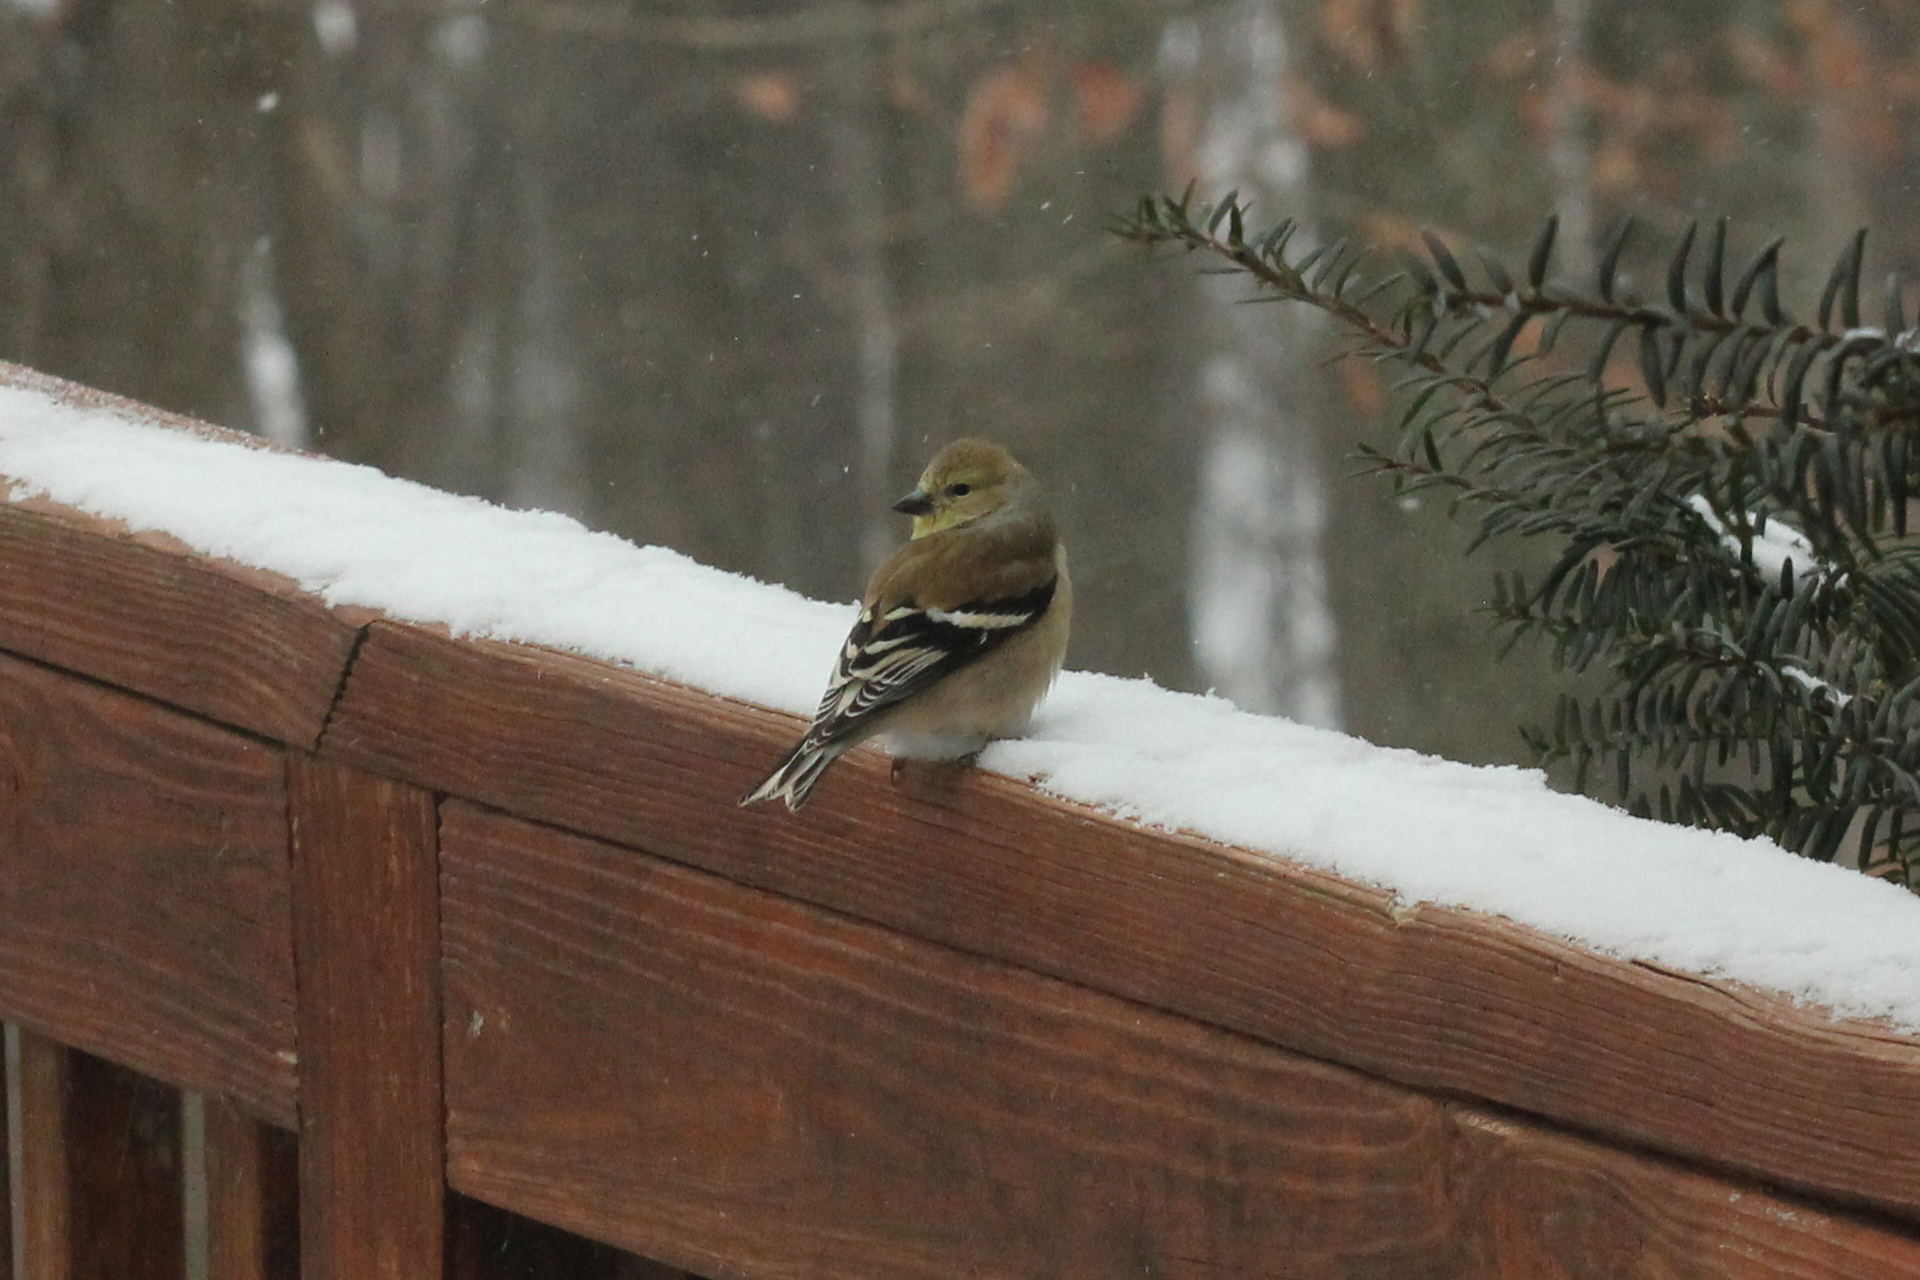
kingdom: Animalia
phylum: Chordata
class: Aves
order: Passeriformes
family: Fringillidae
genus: Spinus
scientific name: Spinus tristis
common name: American goldfinch
